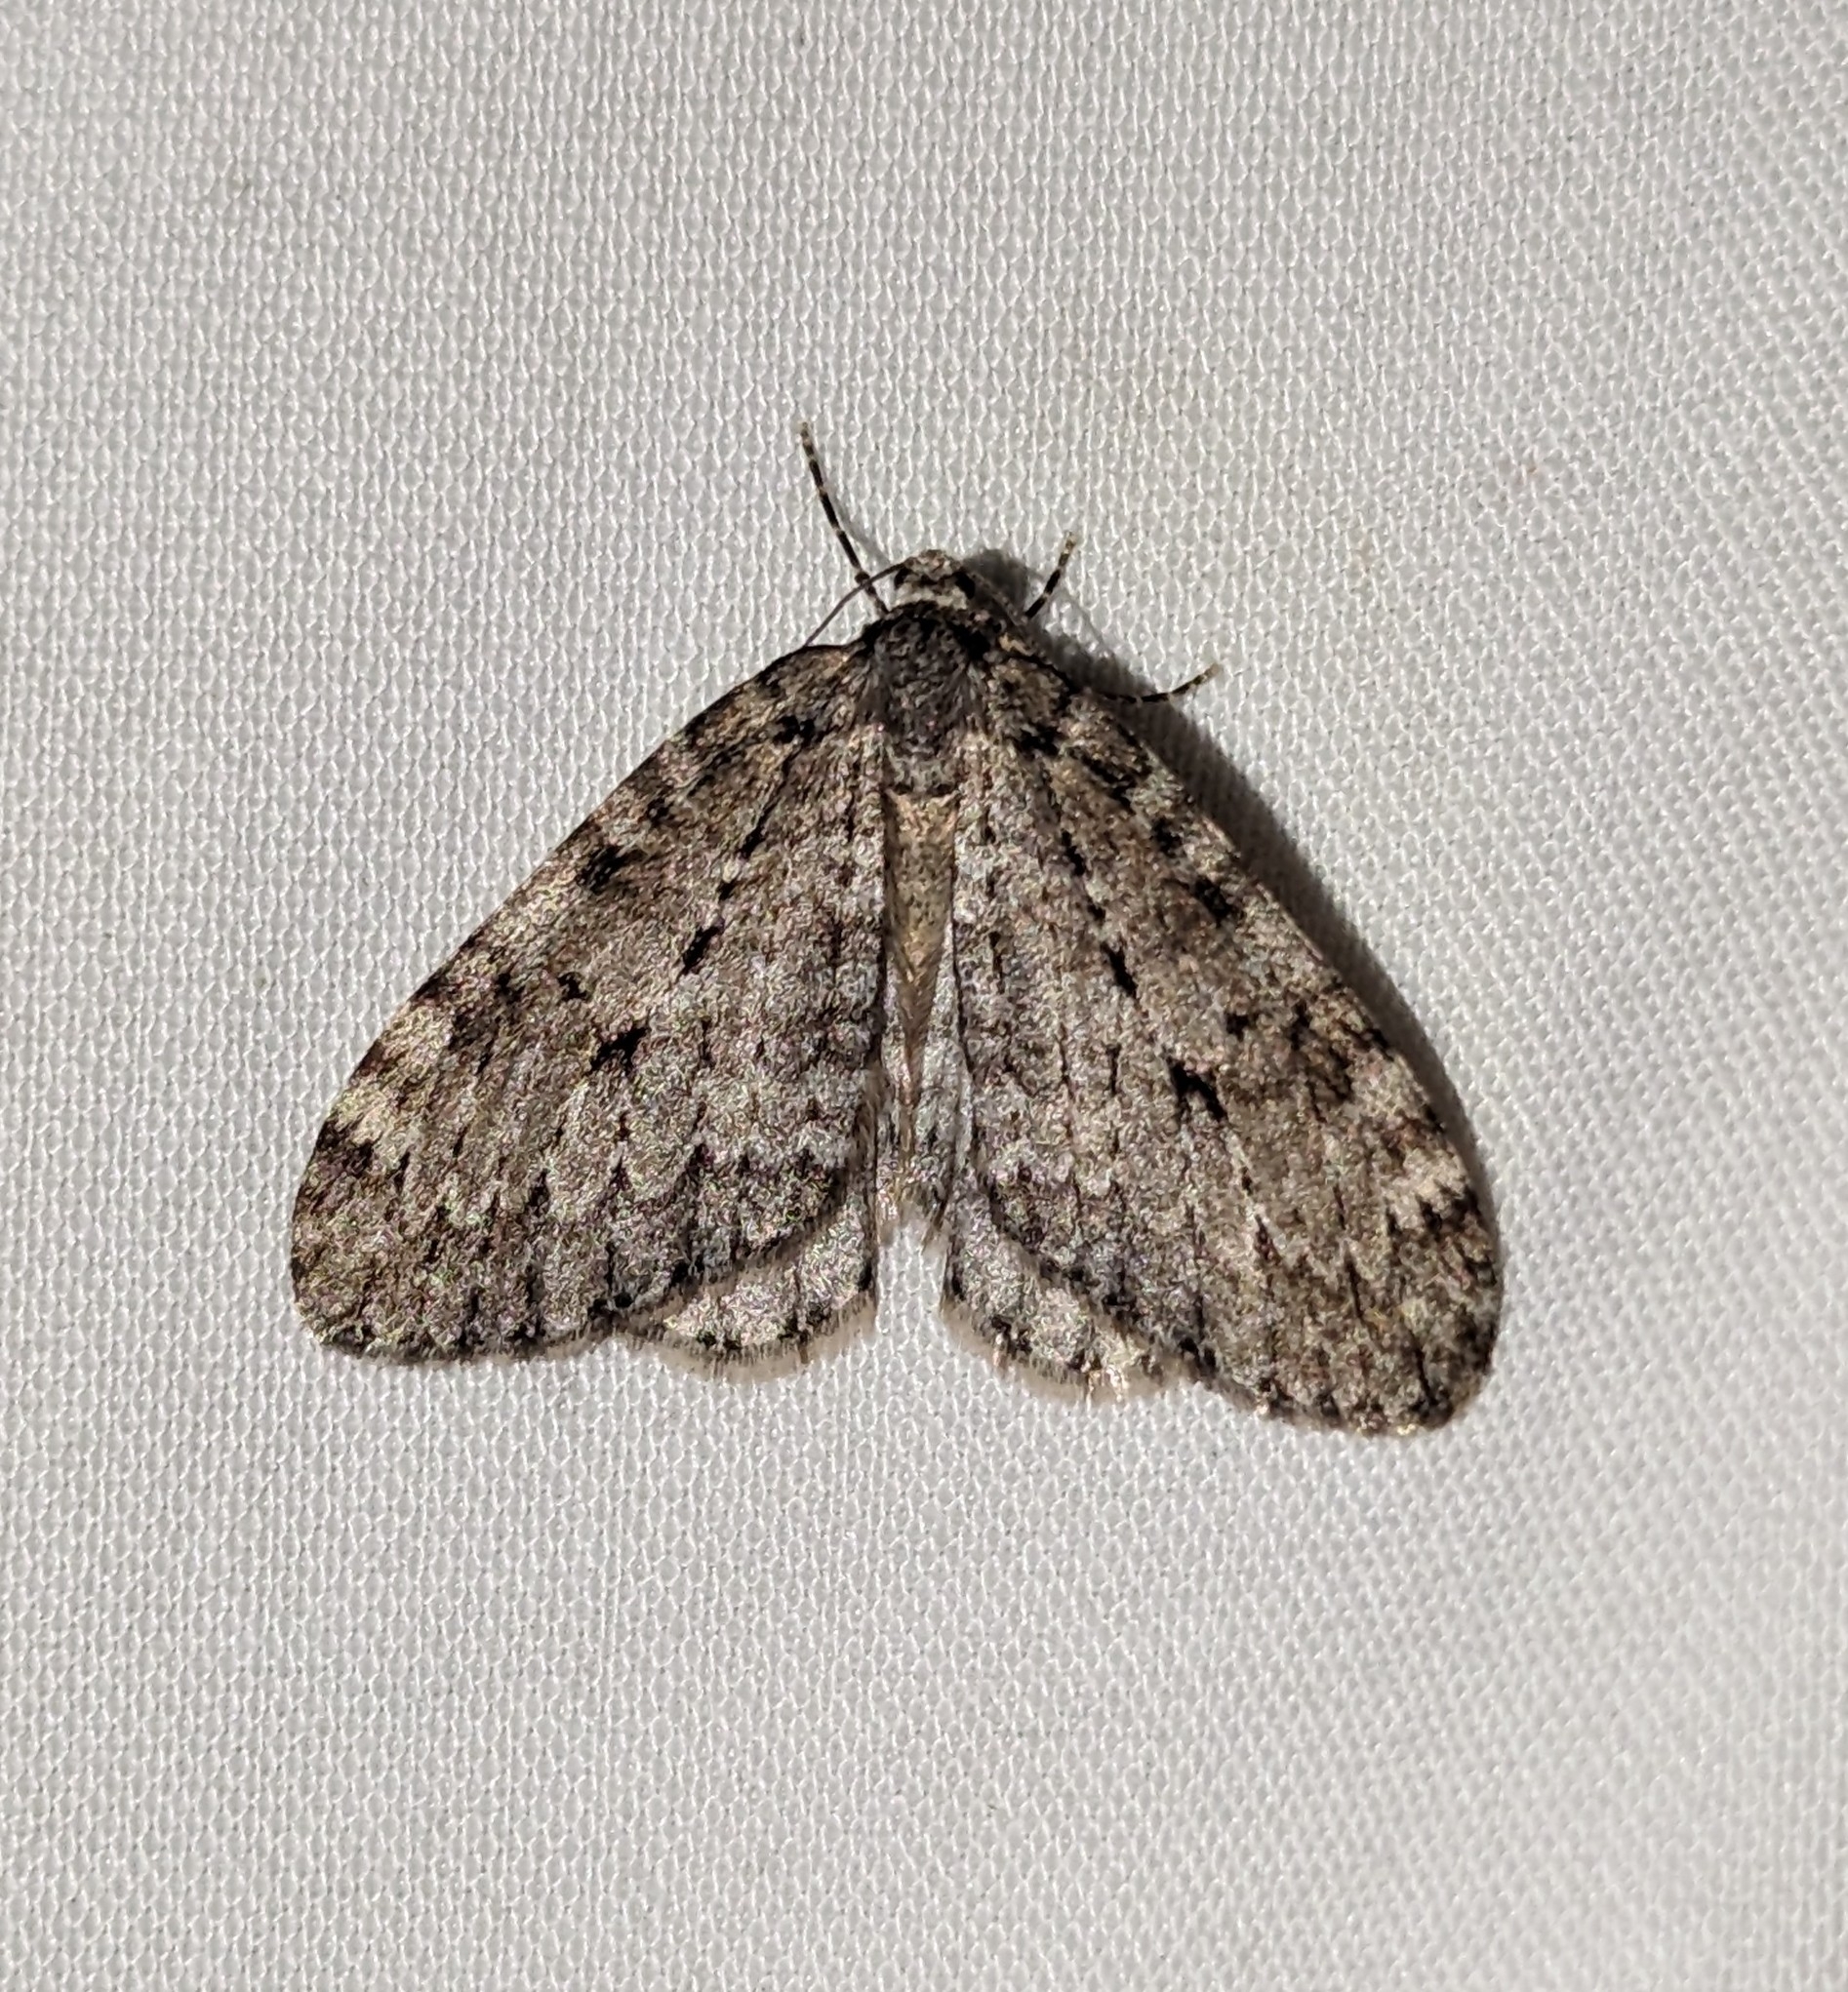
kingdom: Animalia
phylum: Arthropoda
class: Insecta
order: Lepidoptera
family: Geometridae
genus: Epirrita
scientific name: Epirrita autumnata
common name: Autumnal moth
